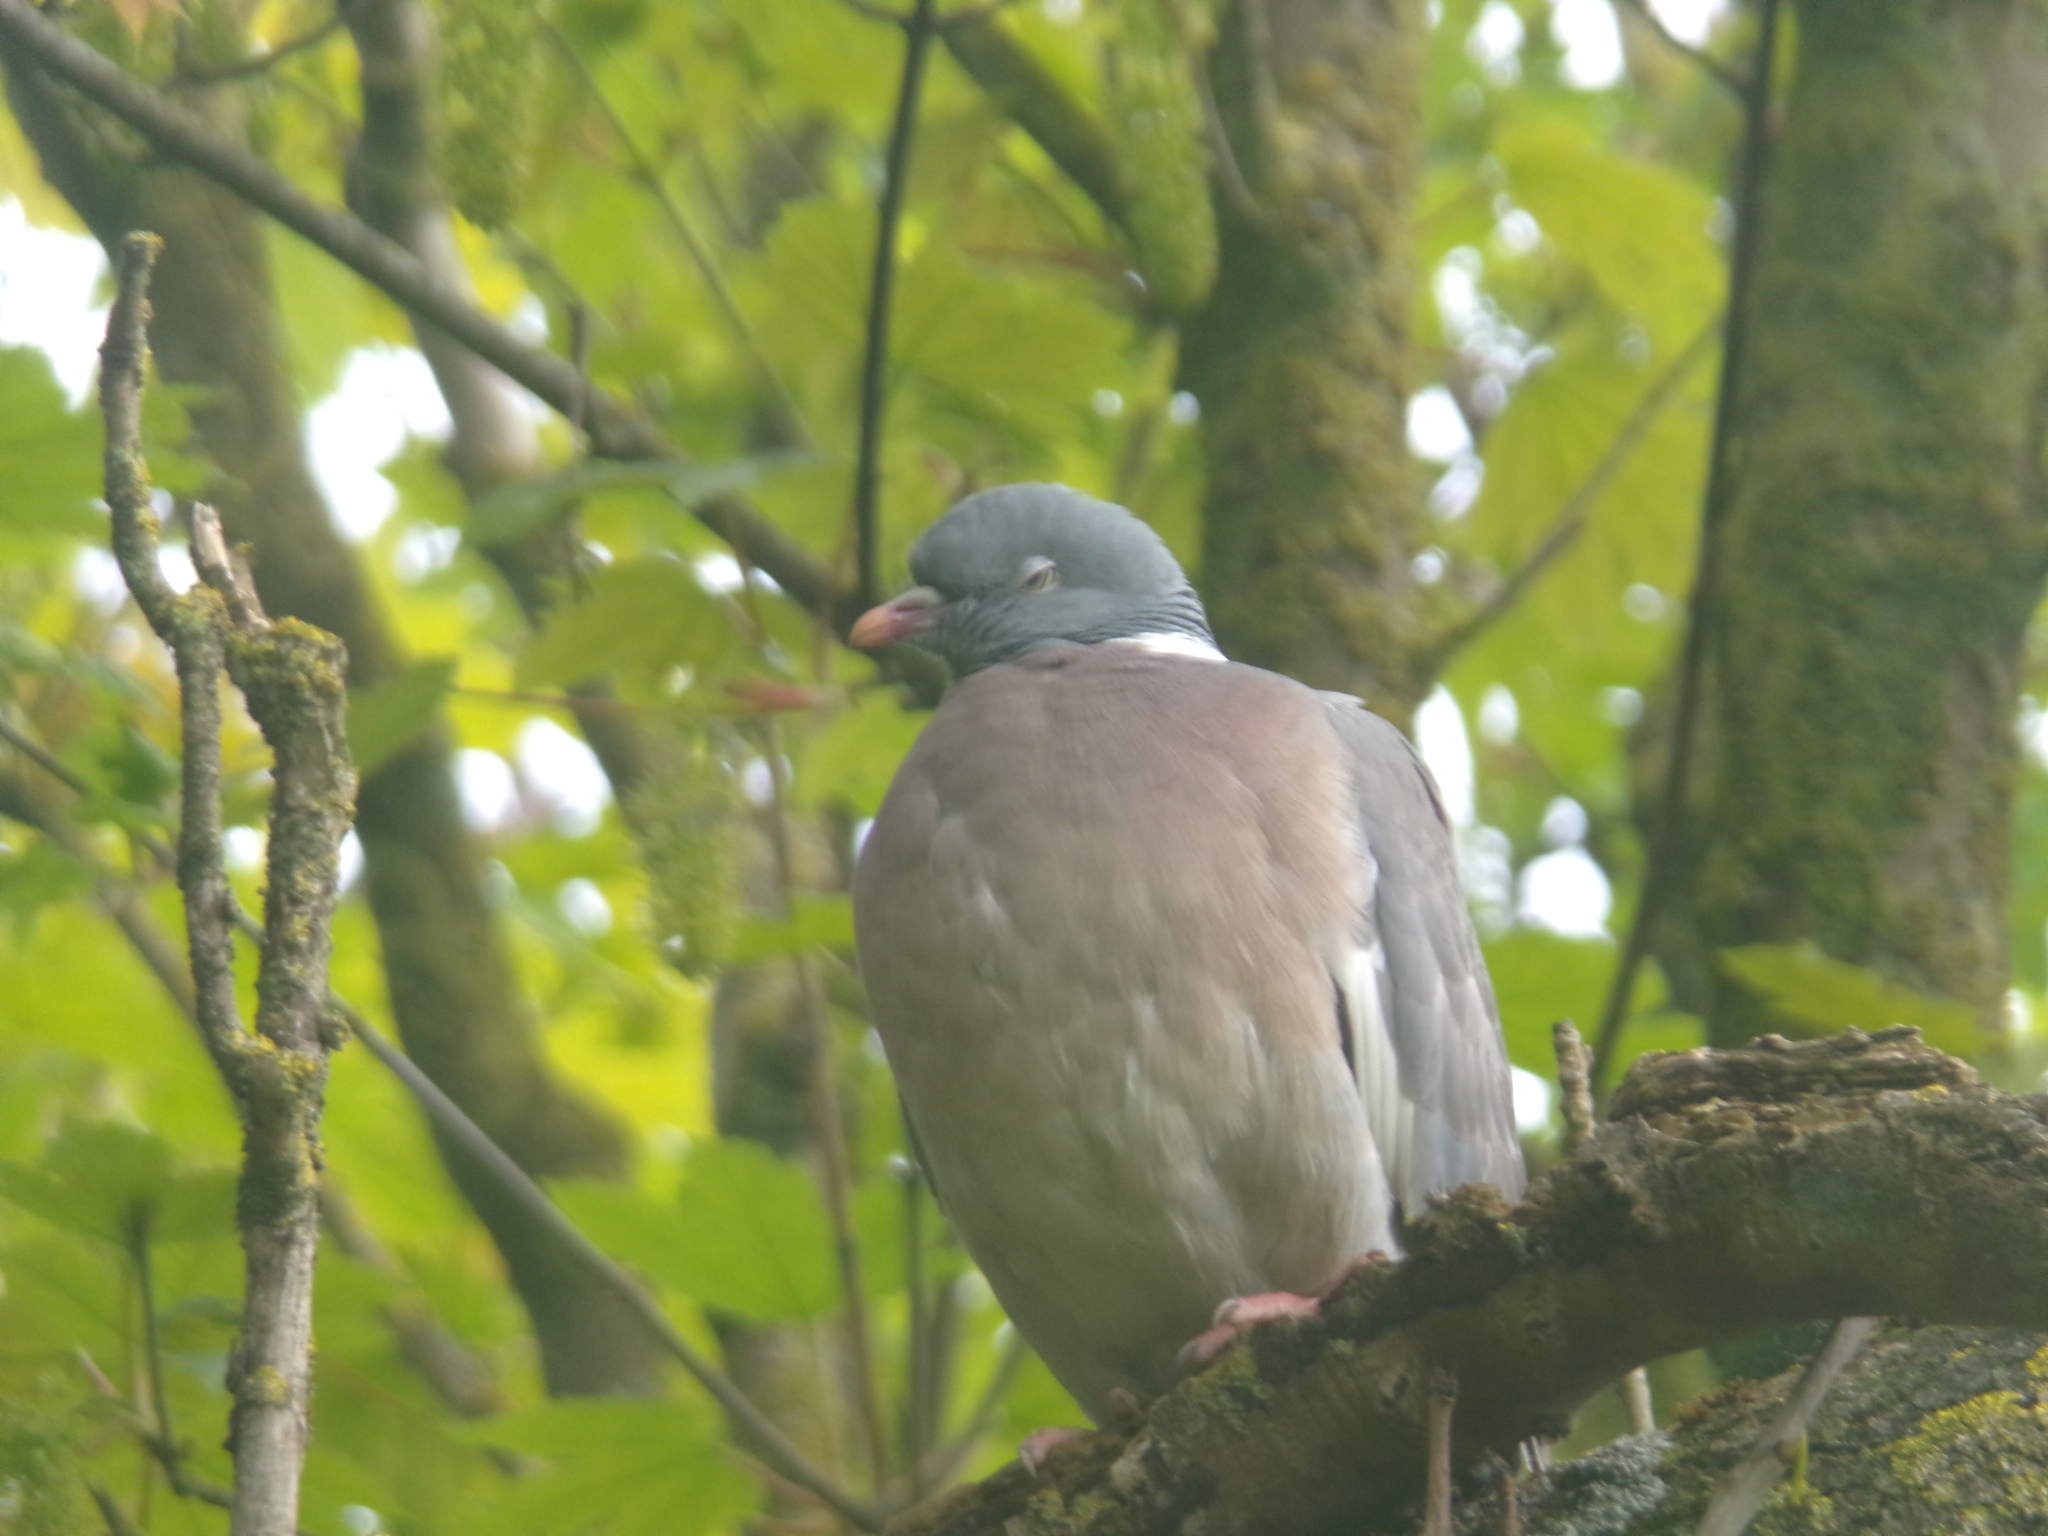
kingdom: Animalia
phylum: Chordata
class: Aves
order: Columbiformes
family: Columbidae
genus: Columba
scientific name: Columba palumbus
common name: Common wood pigeon
